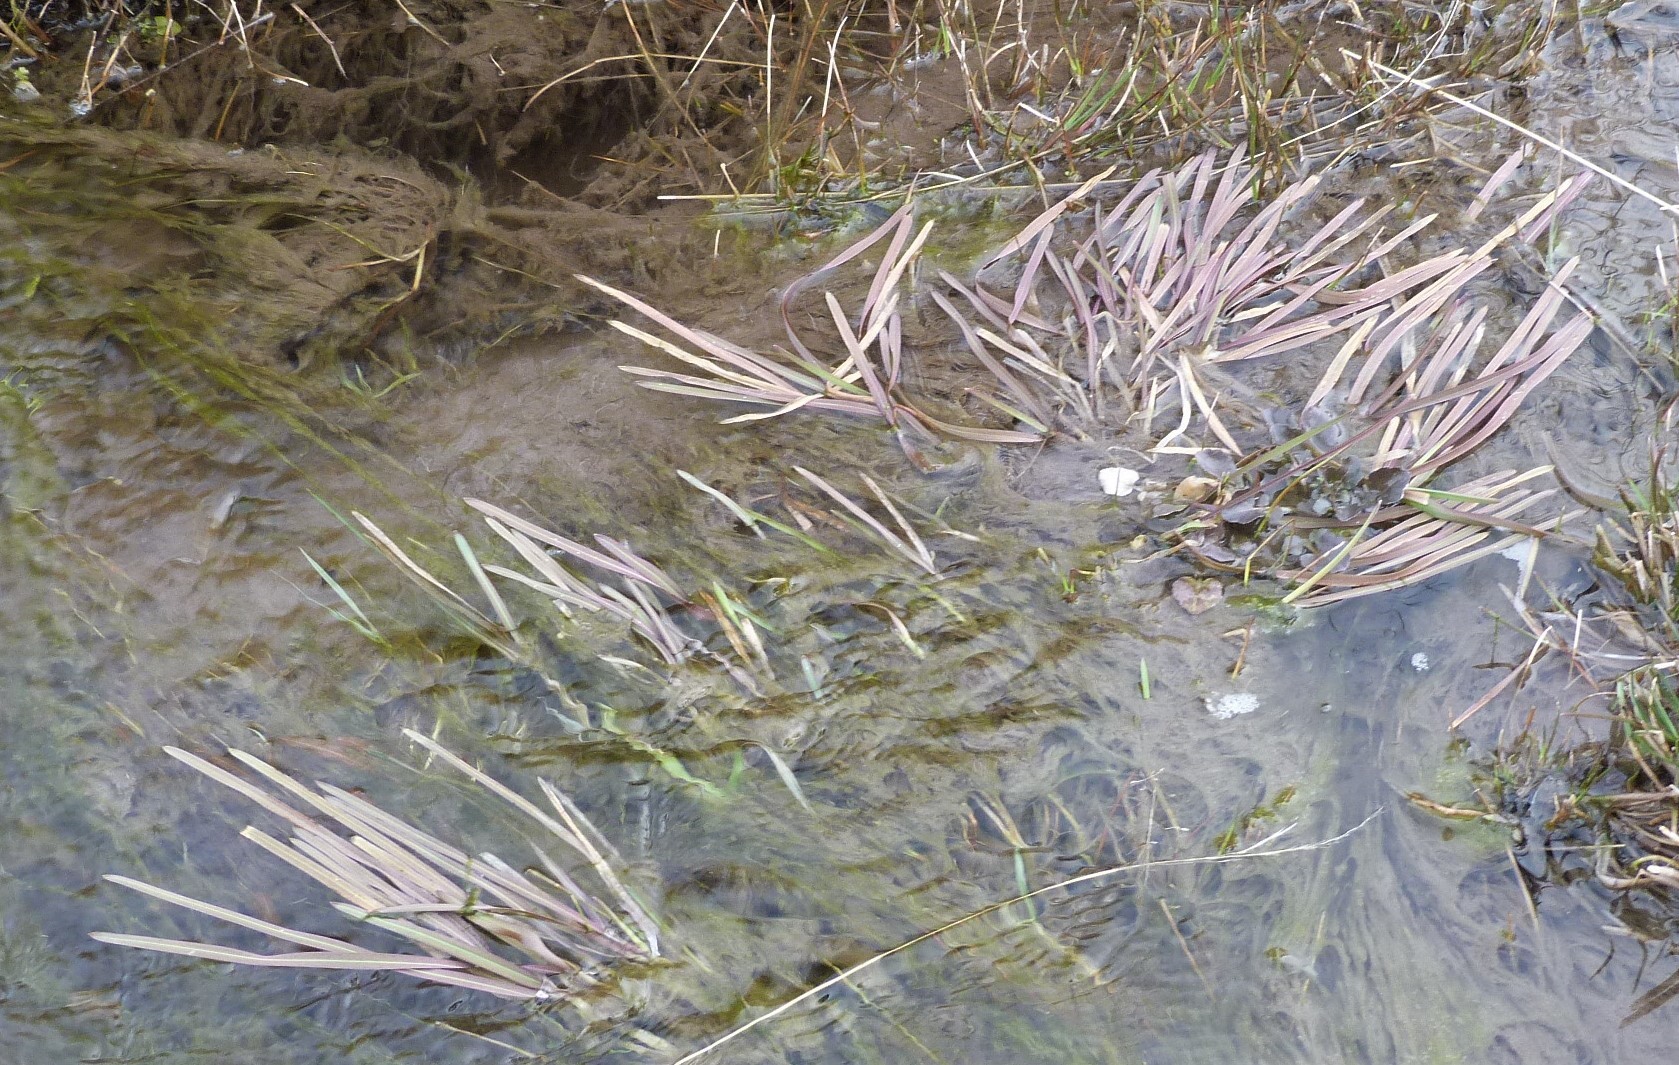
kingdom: Plantae
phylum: Tracheophyta
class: Liliopsida
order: Poales
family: Poaceae
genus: Glyceria
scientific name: Glyceria fluitans
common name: Floating sweet-grass
